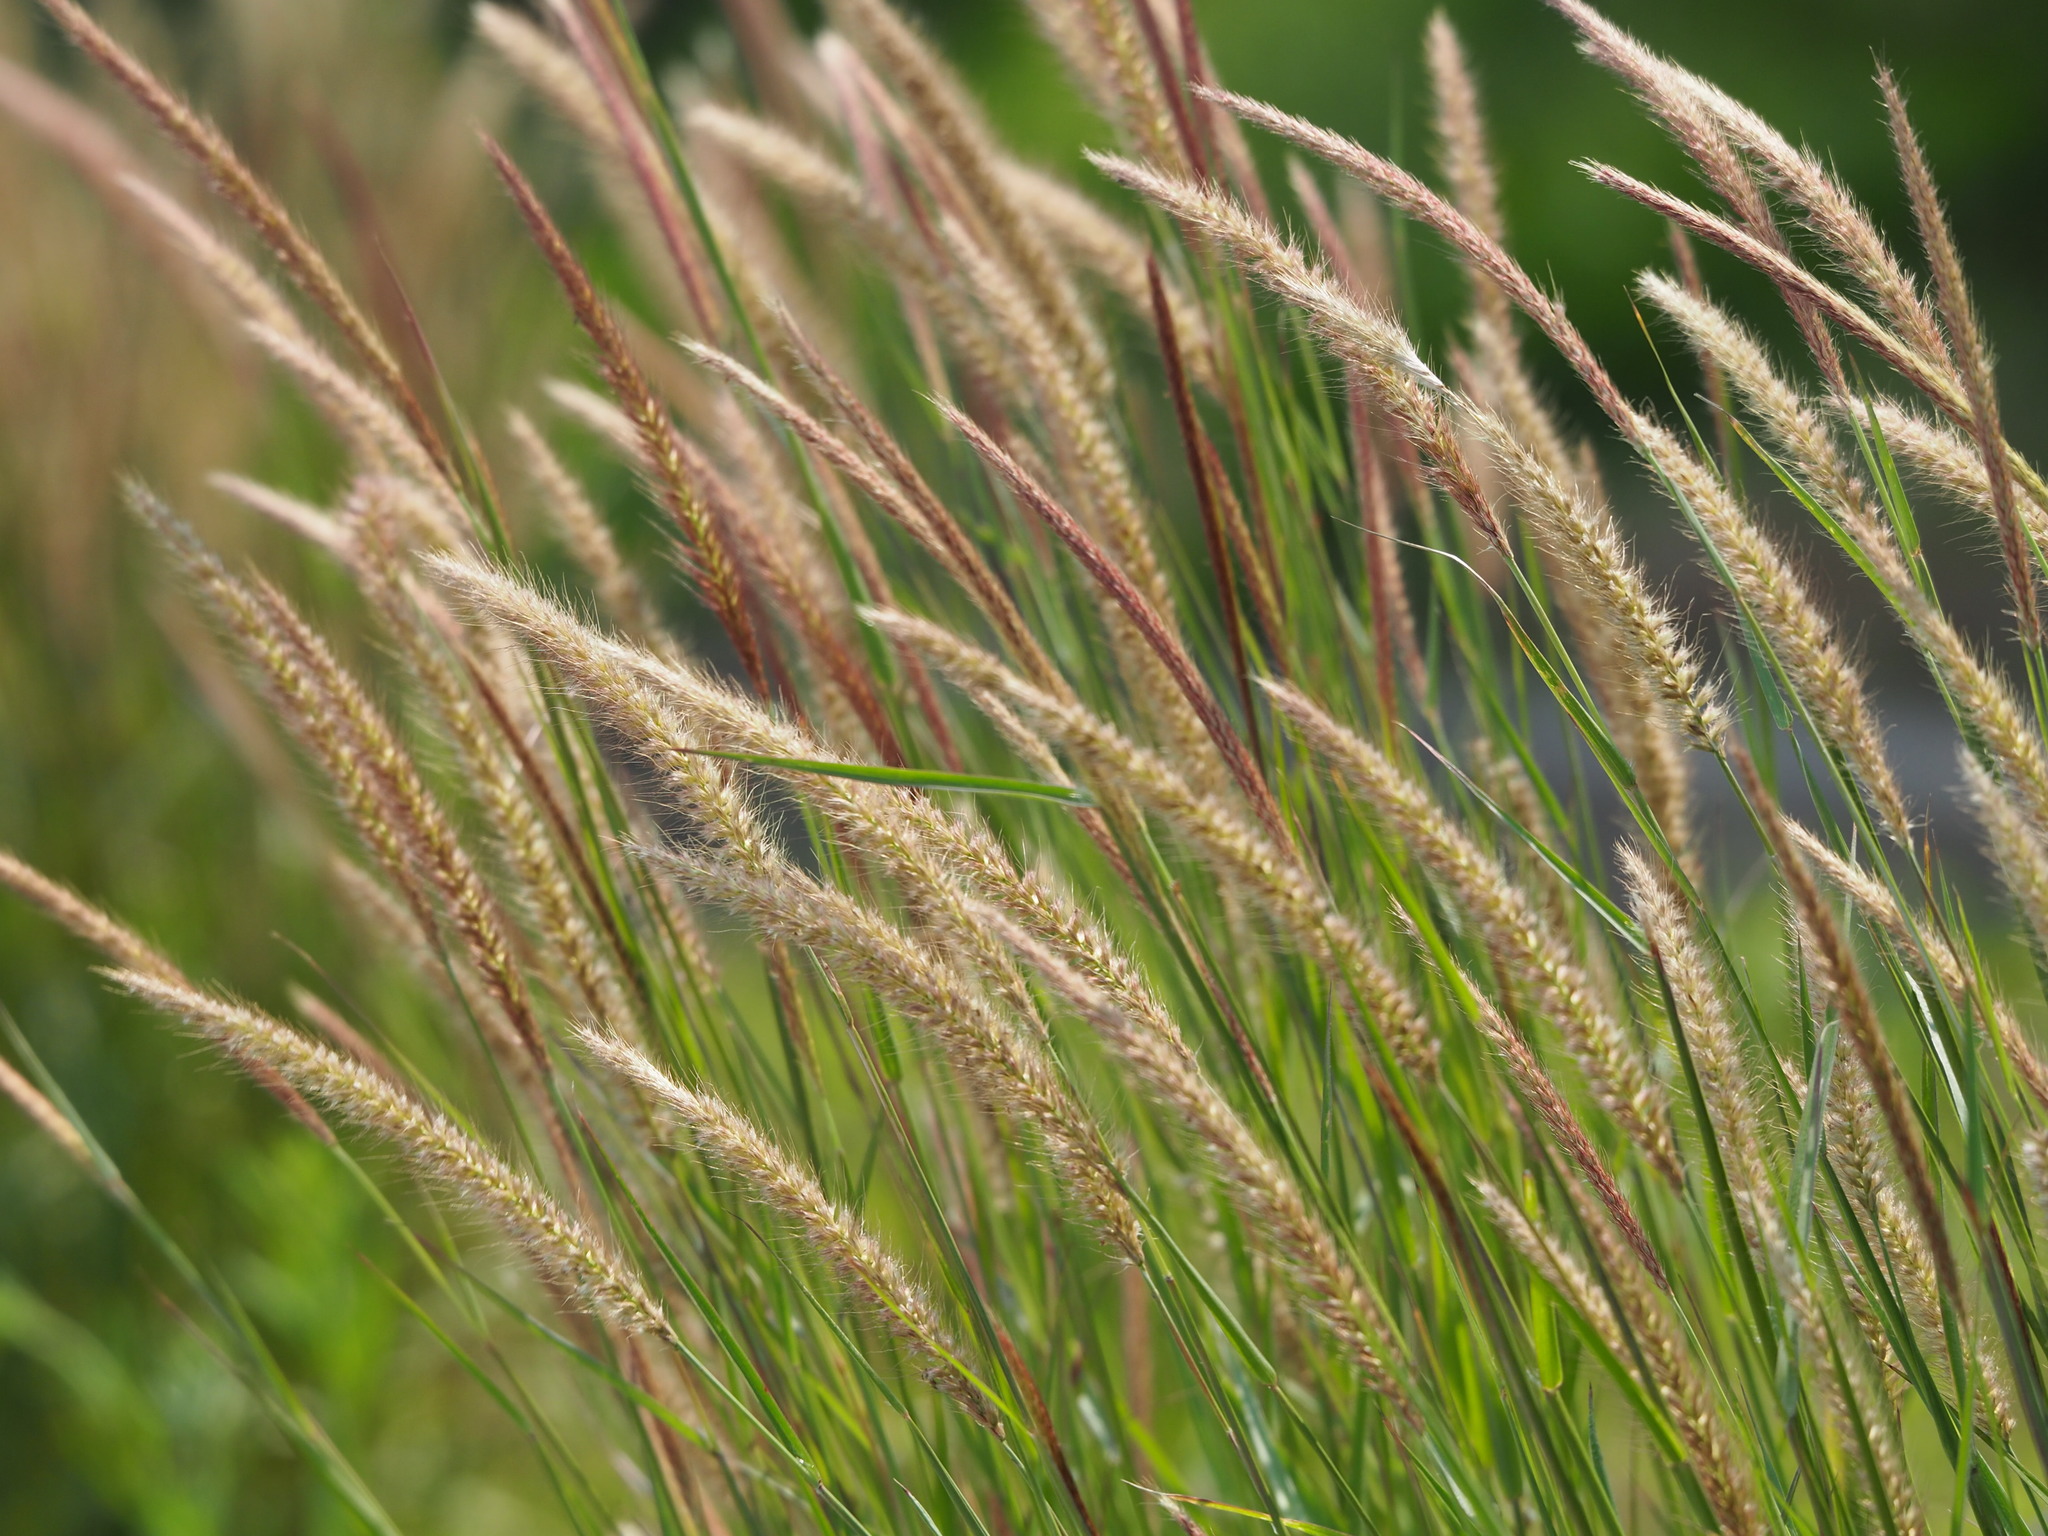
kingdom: Plantae
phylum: Tracheophyta
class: Liliopsida
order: Poales
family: Poaceae
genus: Cenchrus
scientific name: Cenchrus setosus
